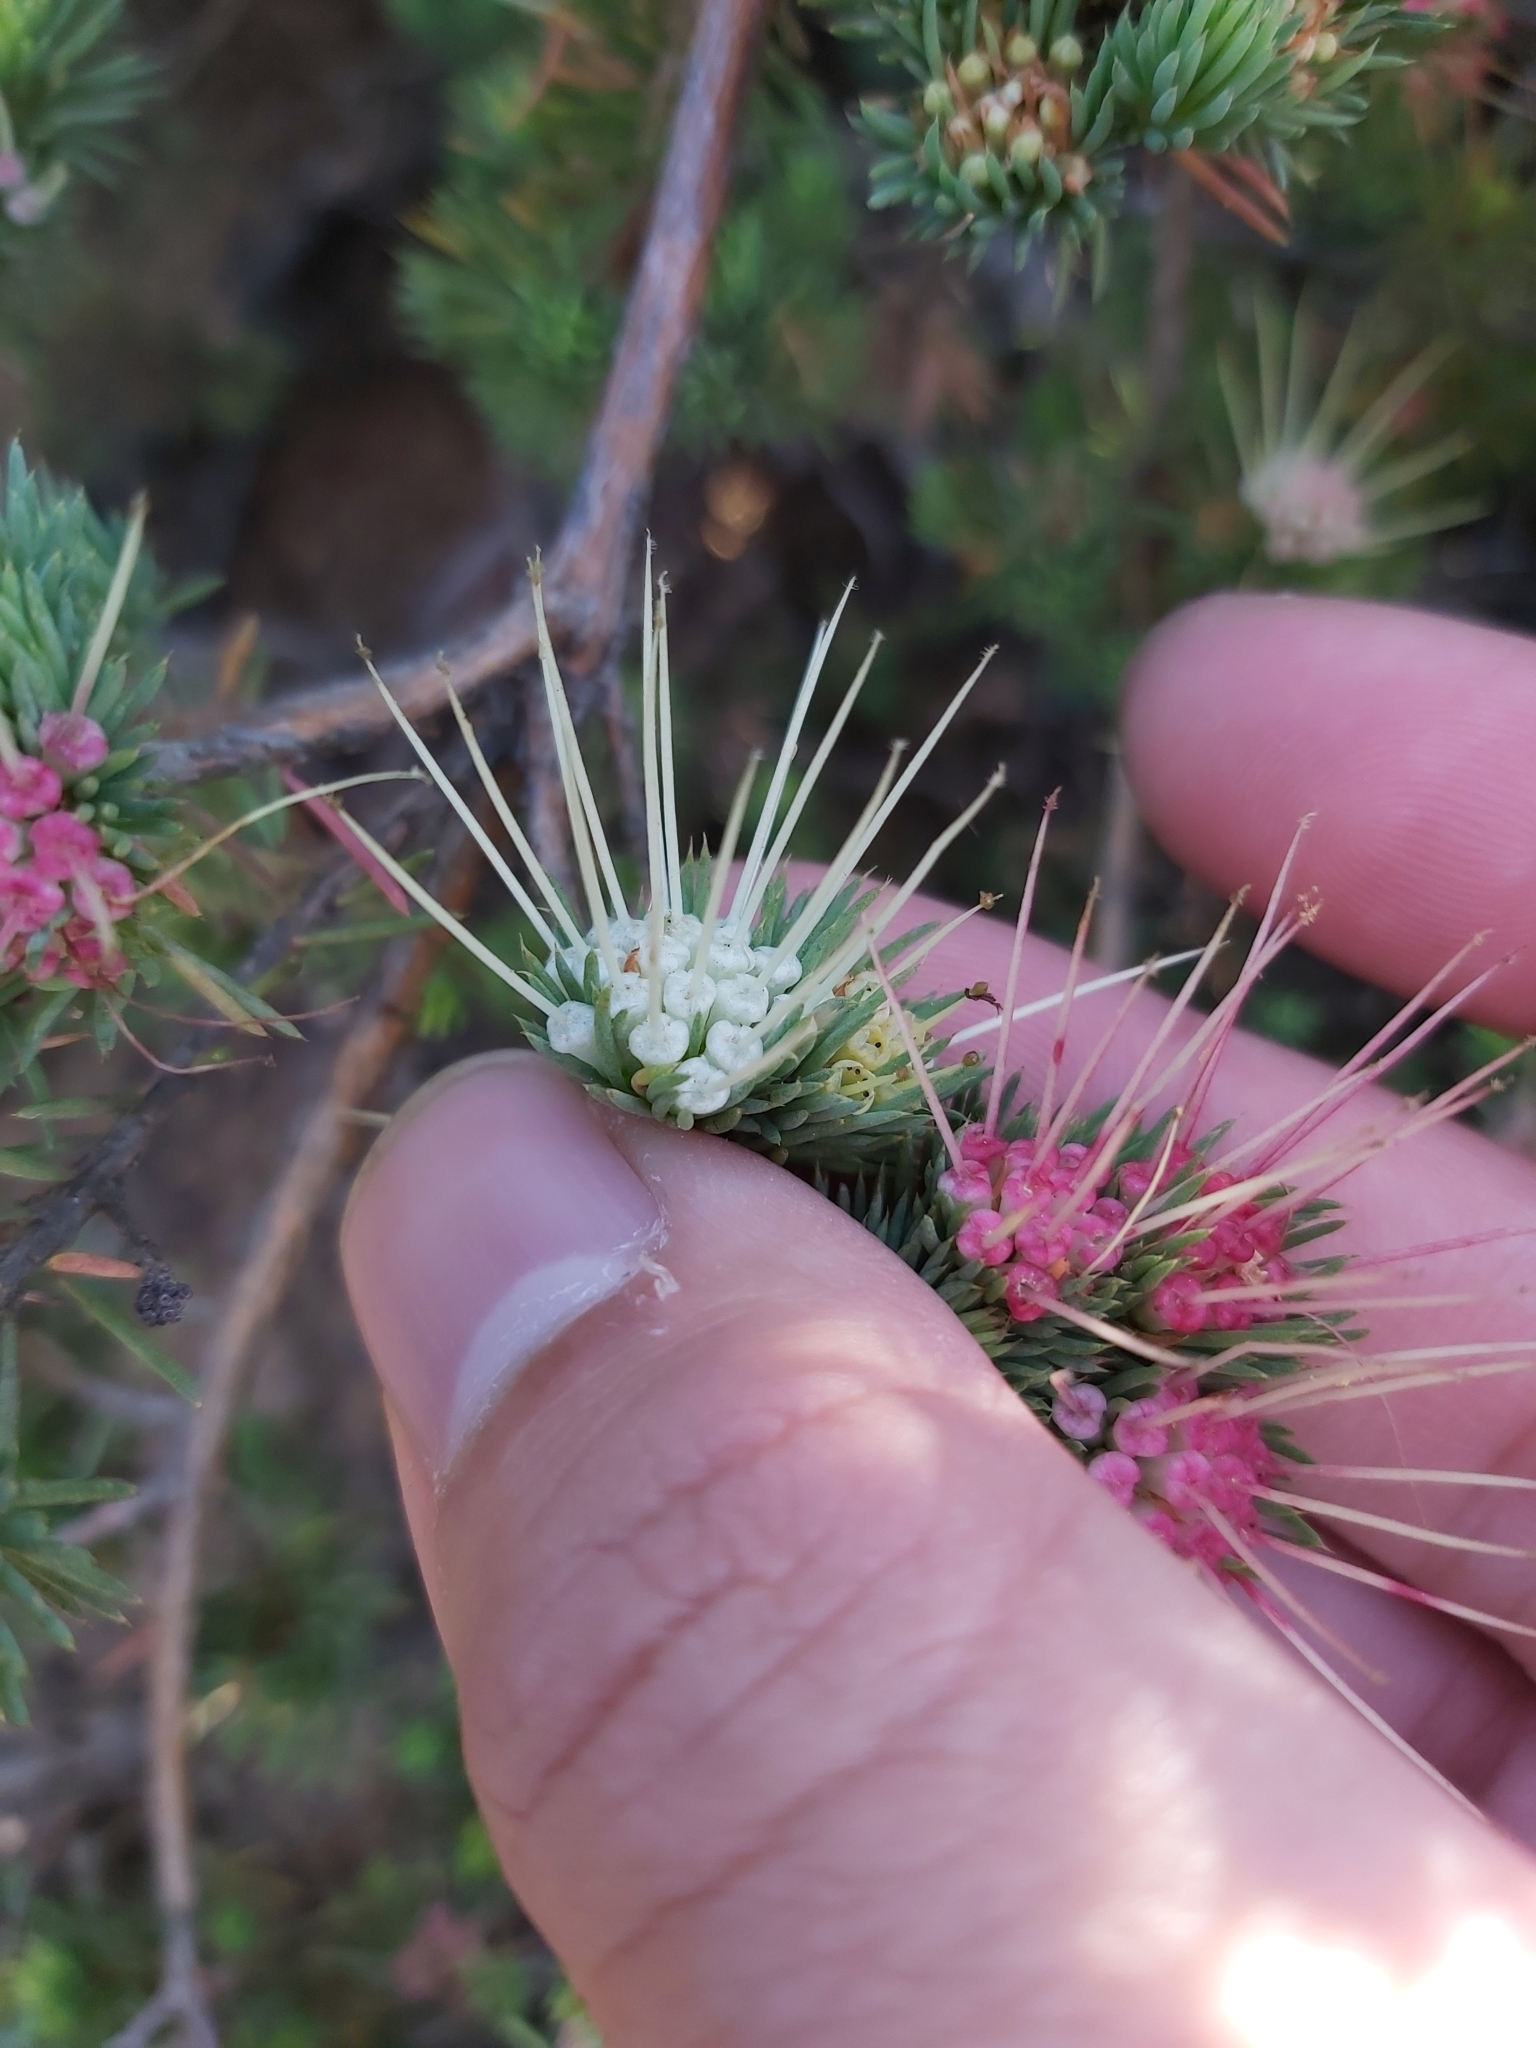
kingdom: Plantae
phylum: Tracheophyta
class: Magnoliopsida
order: Myrtales
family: Myrtaceae
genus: Darwinia
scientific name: Darwinia fascicularis
